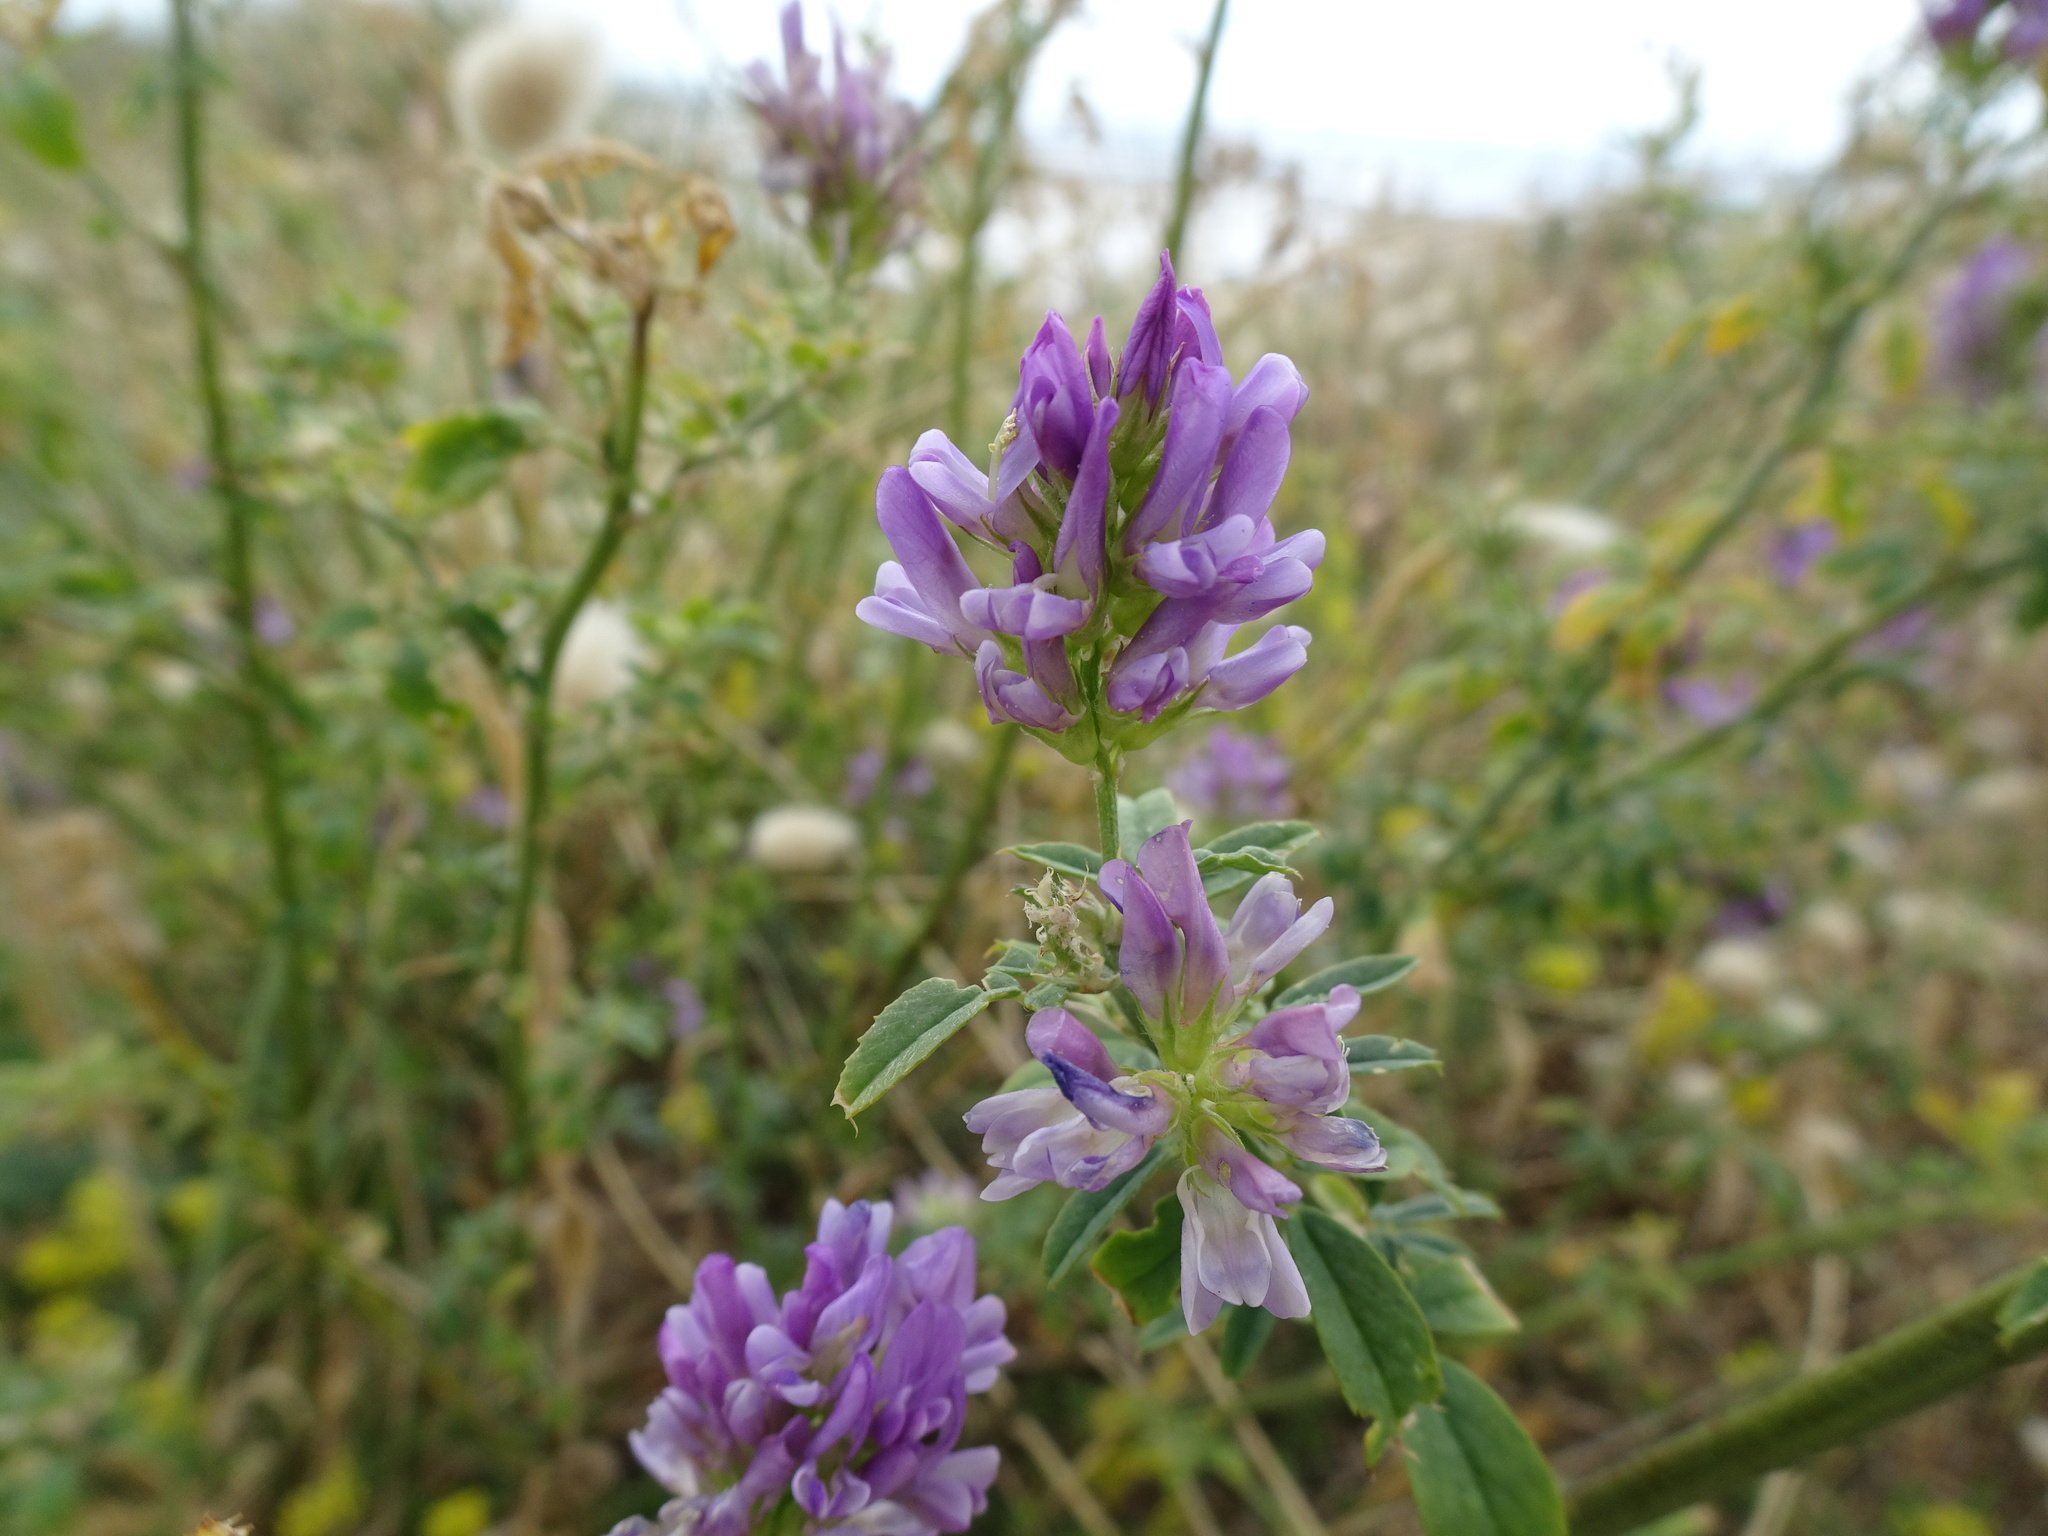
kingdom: Plantae
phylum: Tracheophyta
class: Magnoliopsida
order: Fabales
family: Fabaceae
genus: Medicago
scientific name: Medicago sativa
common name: Alfalfa
